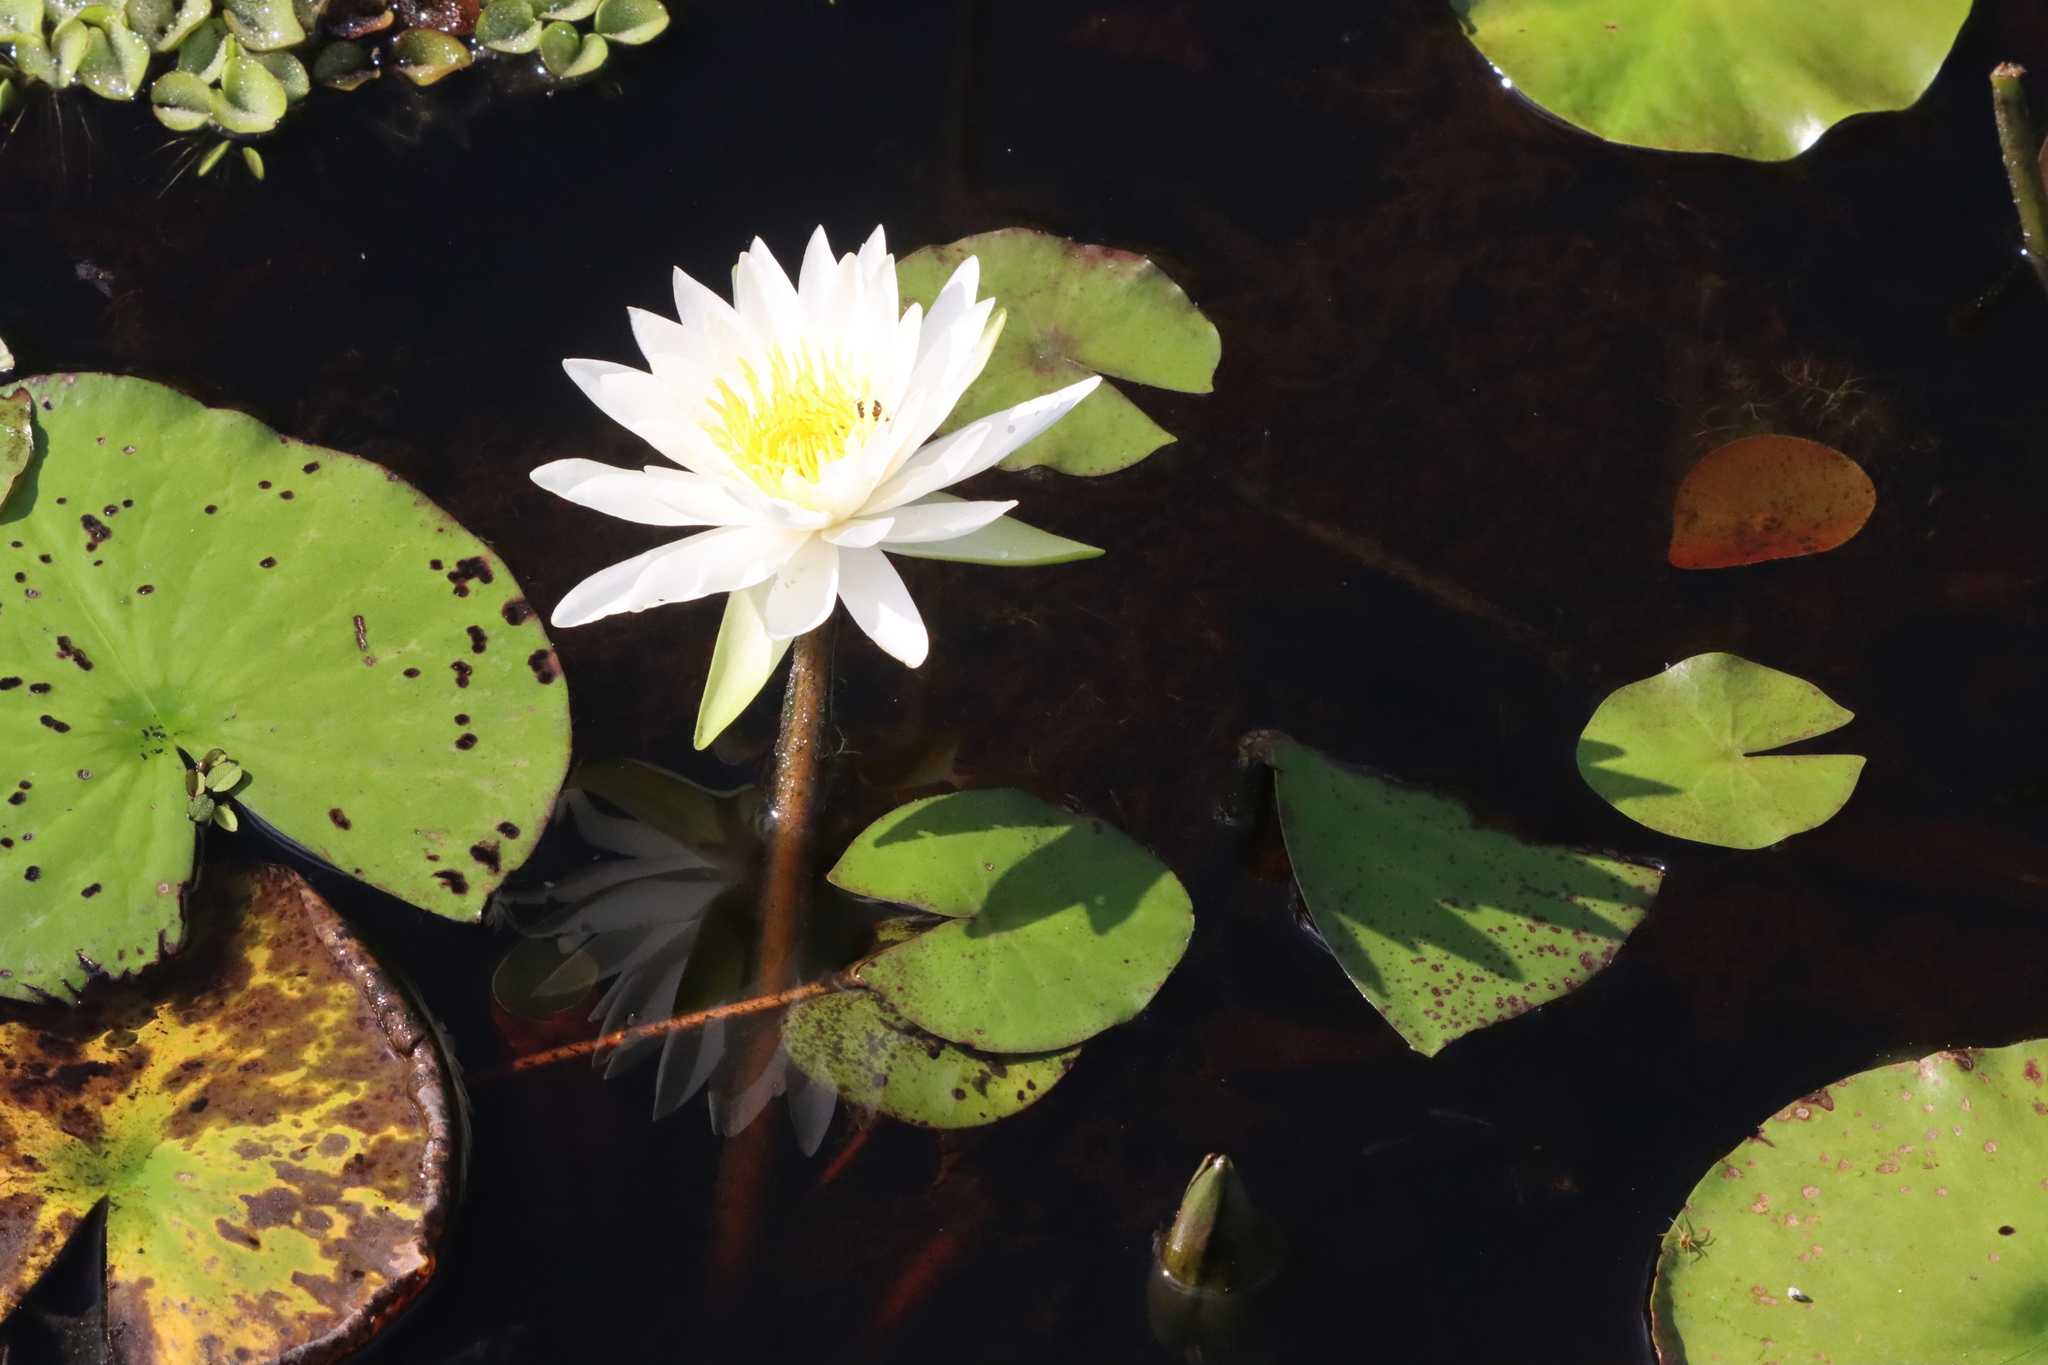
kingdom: Plantae
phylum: Tracheophyta
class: Magnoliopsida
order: Nymphaeales
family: Nymphaeaceae
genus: Nymphaea
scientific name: Nymphaea odorata
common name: Fragrant water-lily
